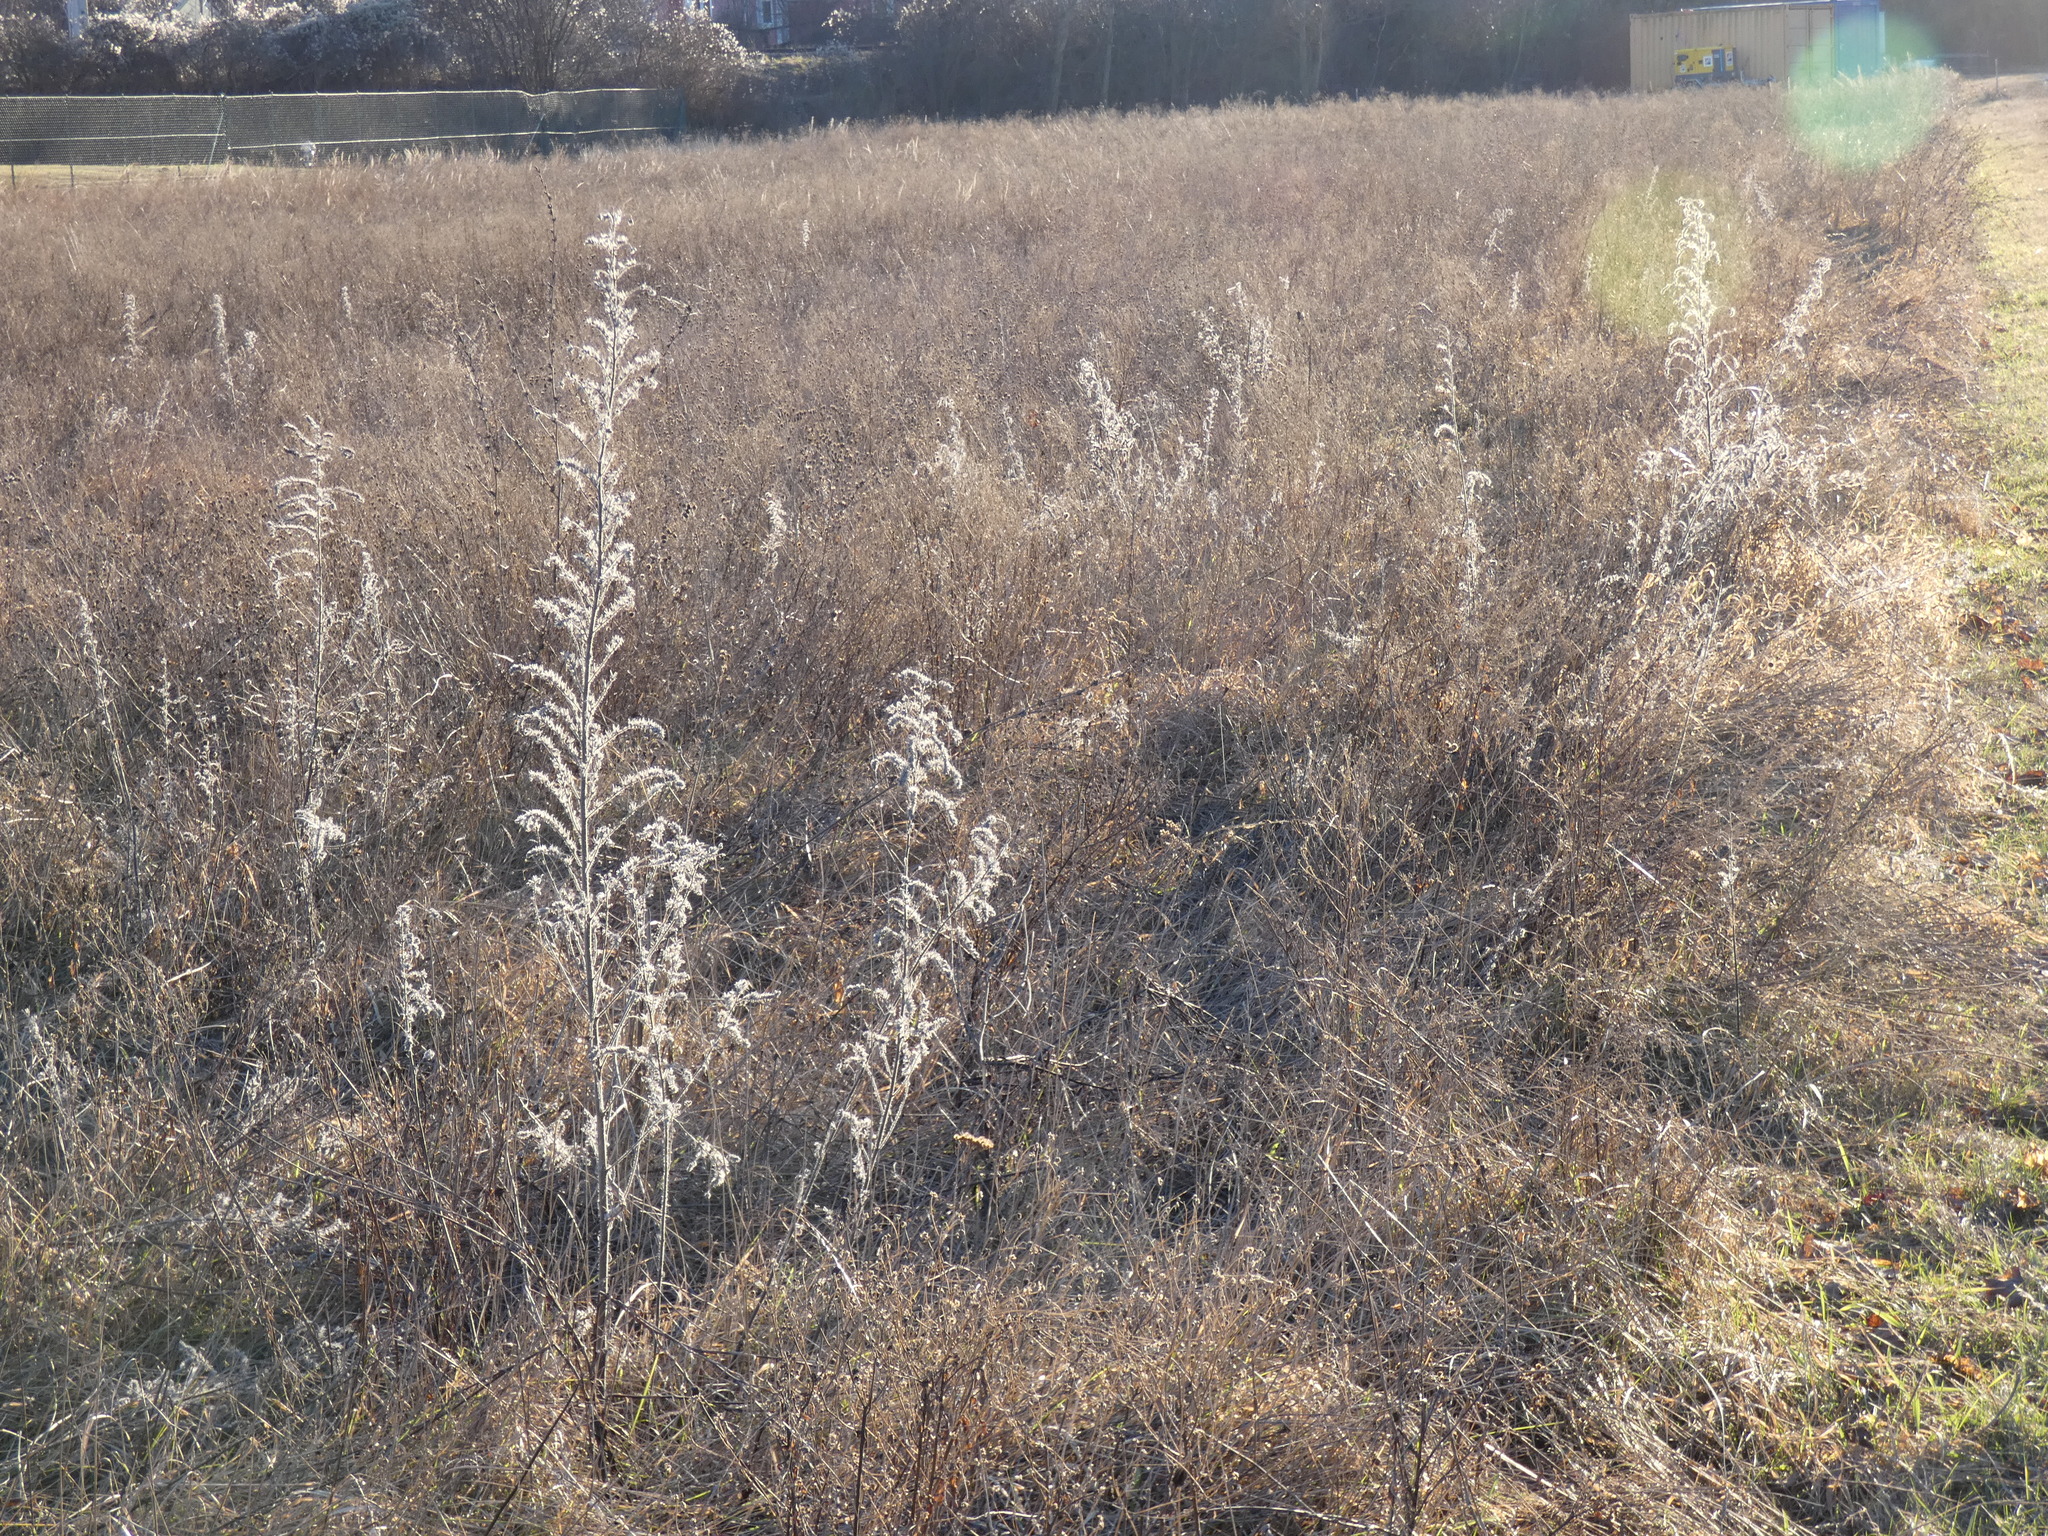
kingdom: Plantae
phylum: Tracheophyta
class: Magnoliopsida
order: Boraginales
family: Boraginaceae
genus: Echium
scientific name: Echium vulgare
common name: Common viper's bugloss
